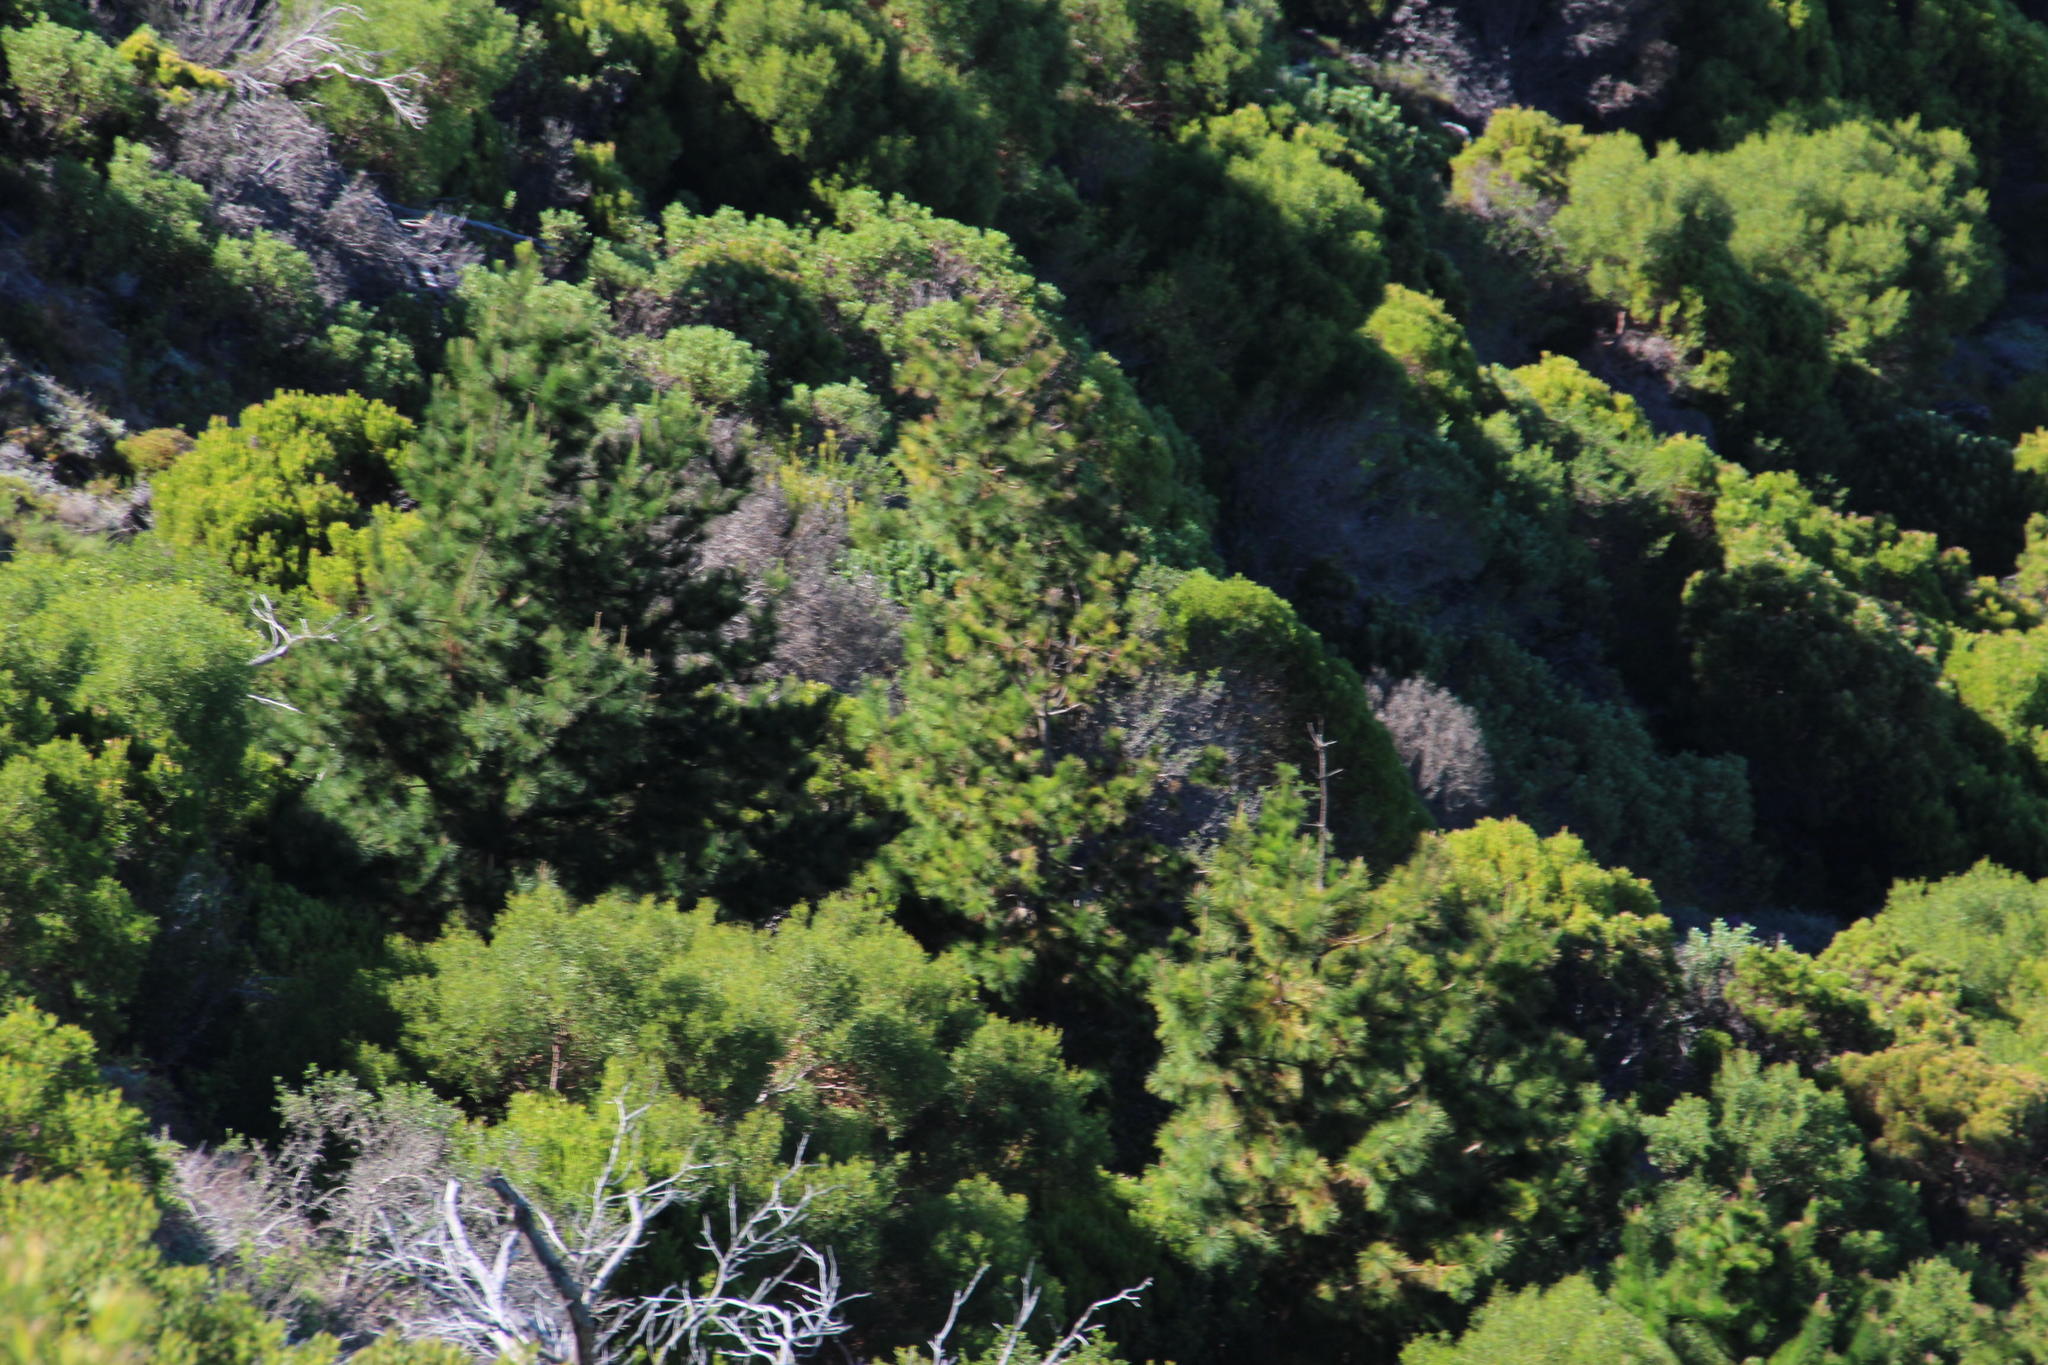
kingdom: Plantae
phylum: Tracheophyta
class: Pinopsida
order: Pinales
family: Pinaceae
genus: Pinus
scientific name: Pinus radiata
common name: Monterey pine
